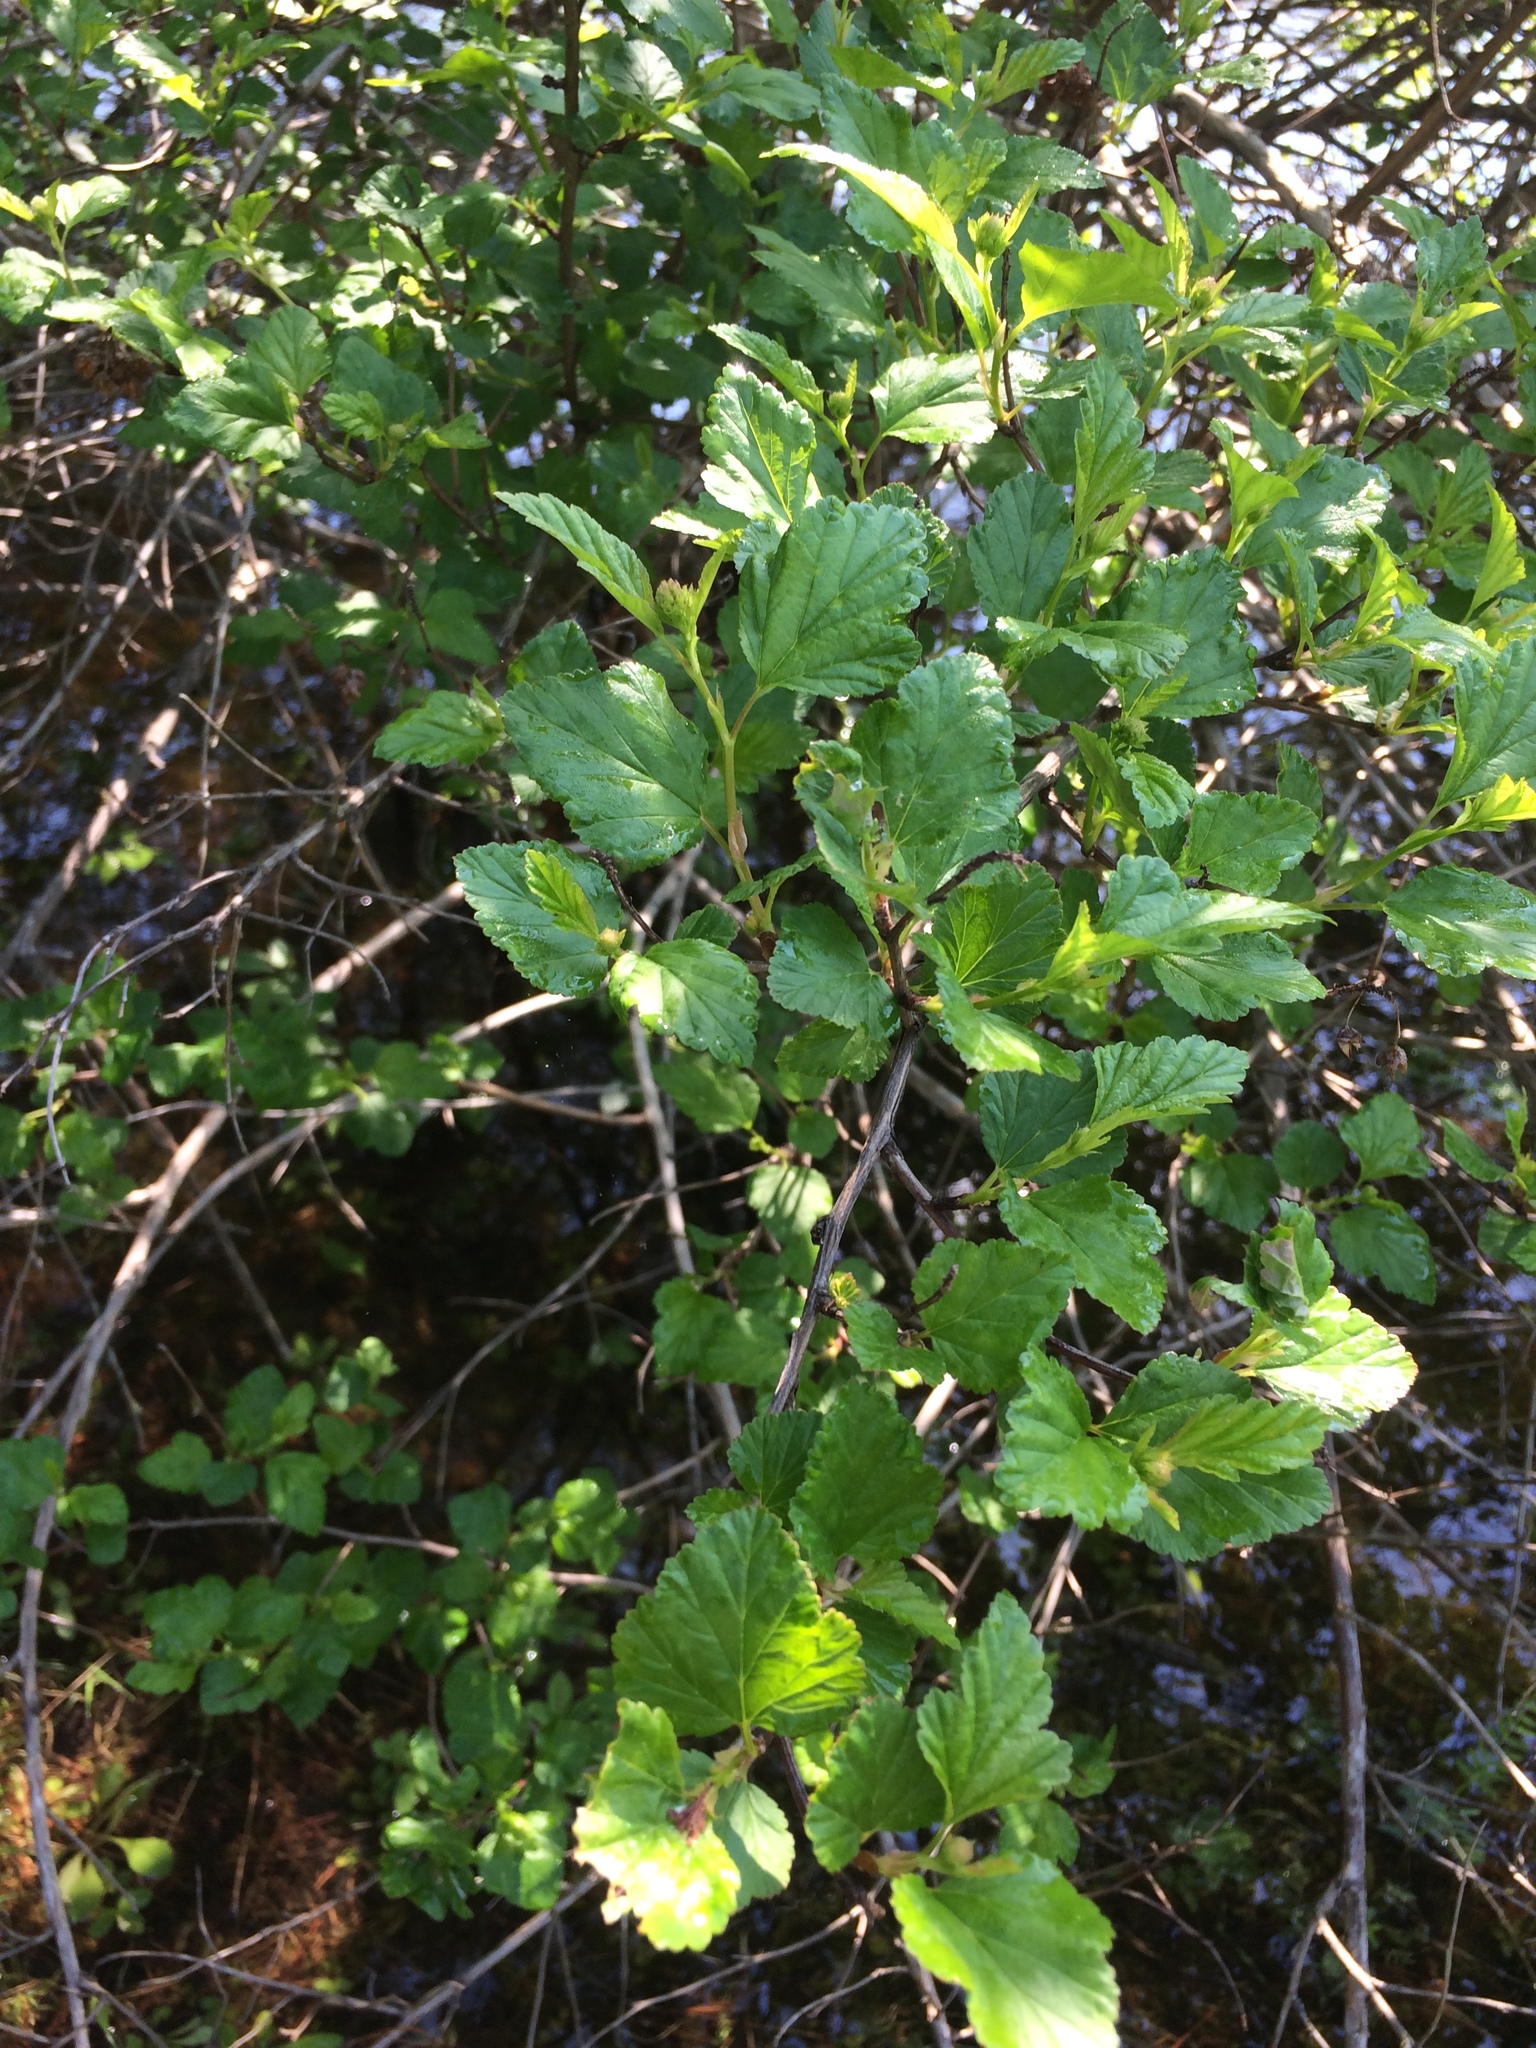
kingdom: Plantae
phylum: Tracheophyta
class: Magnoliopsida
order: Rosales
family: Rosaceae
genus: Physocarpus
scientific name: Physocarpus opulifolius
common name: Ninebark
